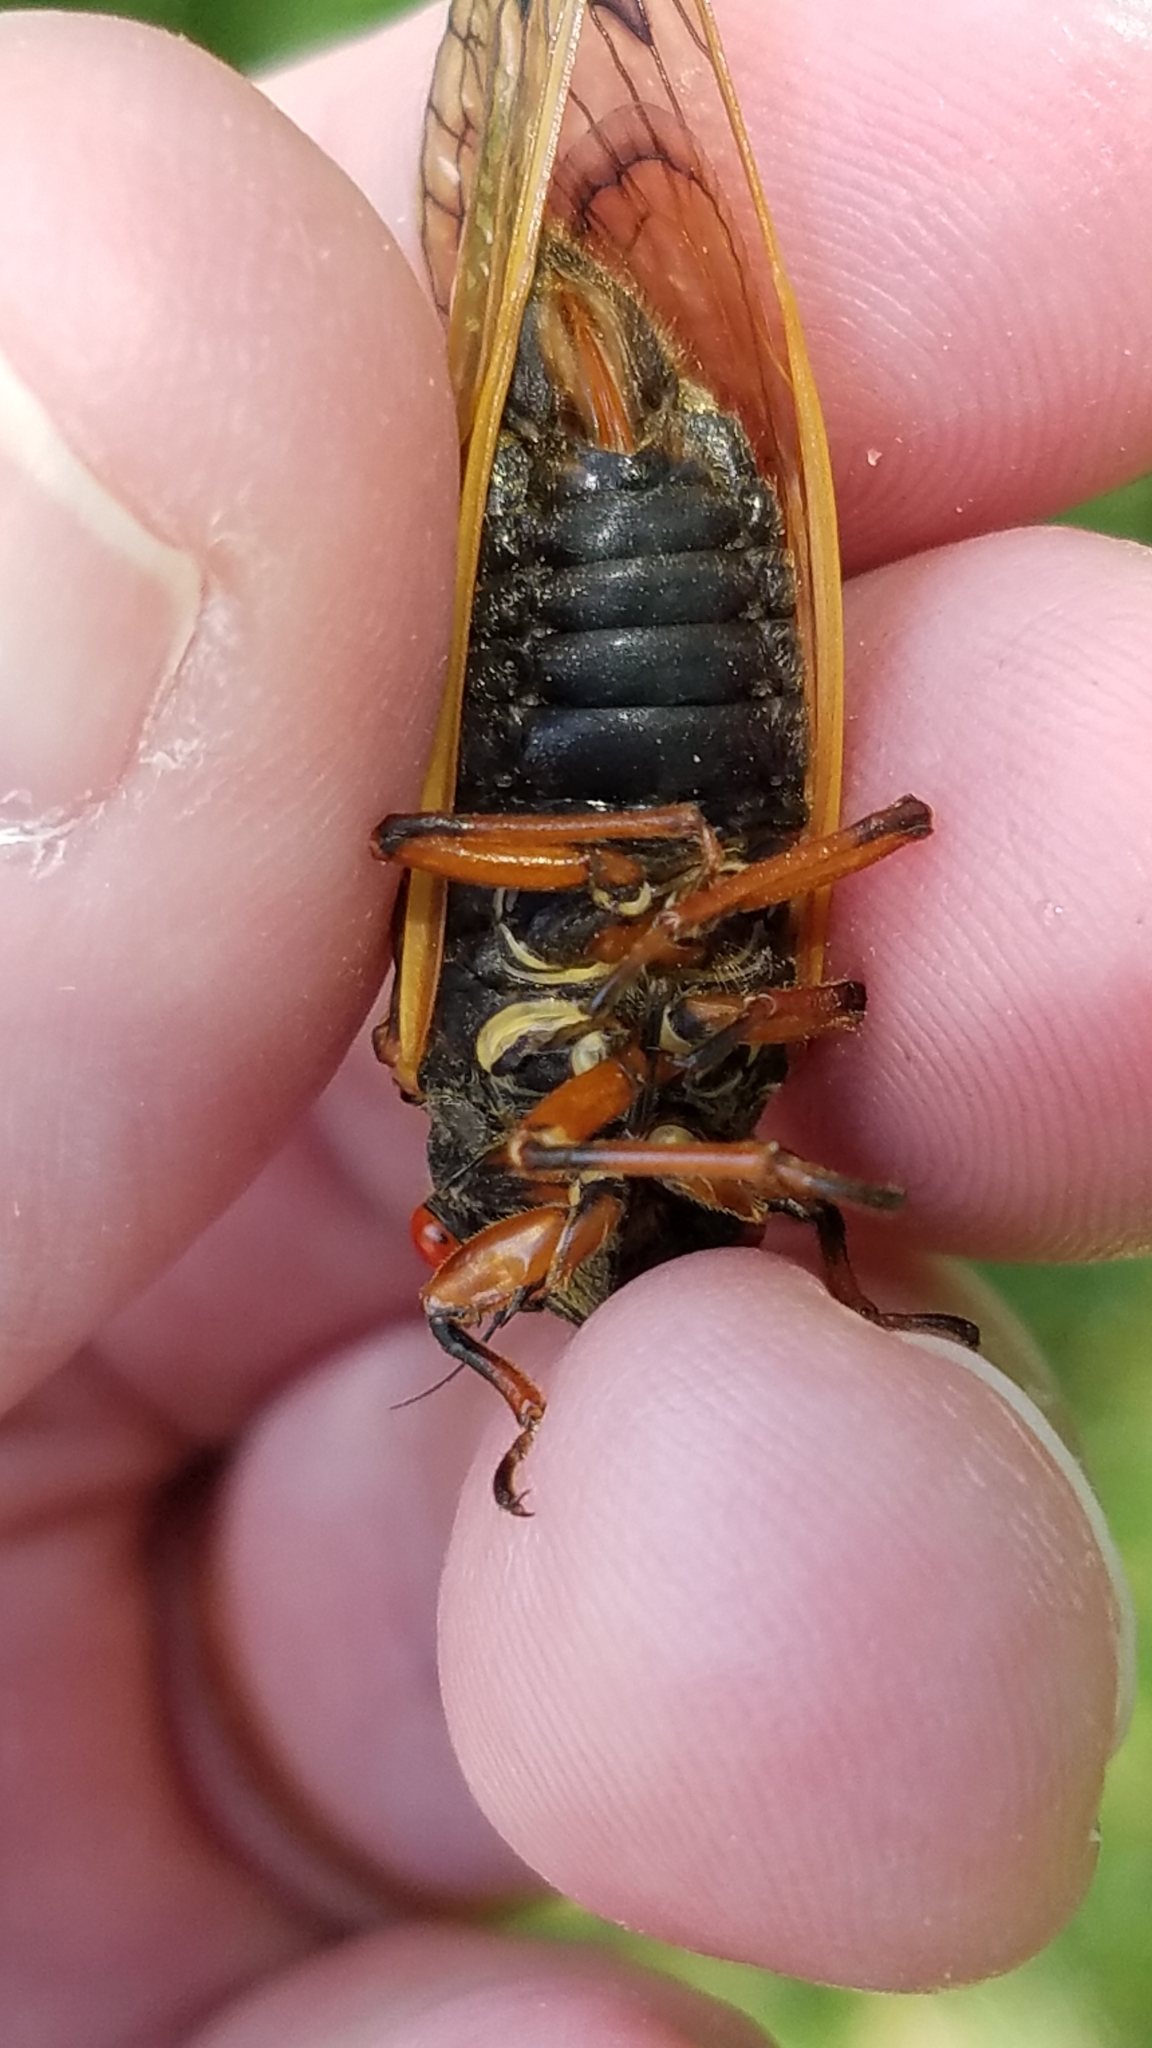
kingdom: Animalia
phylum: Arthropoda
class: Insecta
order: Hemiptera
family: Cicadidae
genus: Magicicada
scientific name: Magicicada cassini
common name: Cassin's 17-year cicada
